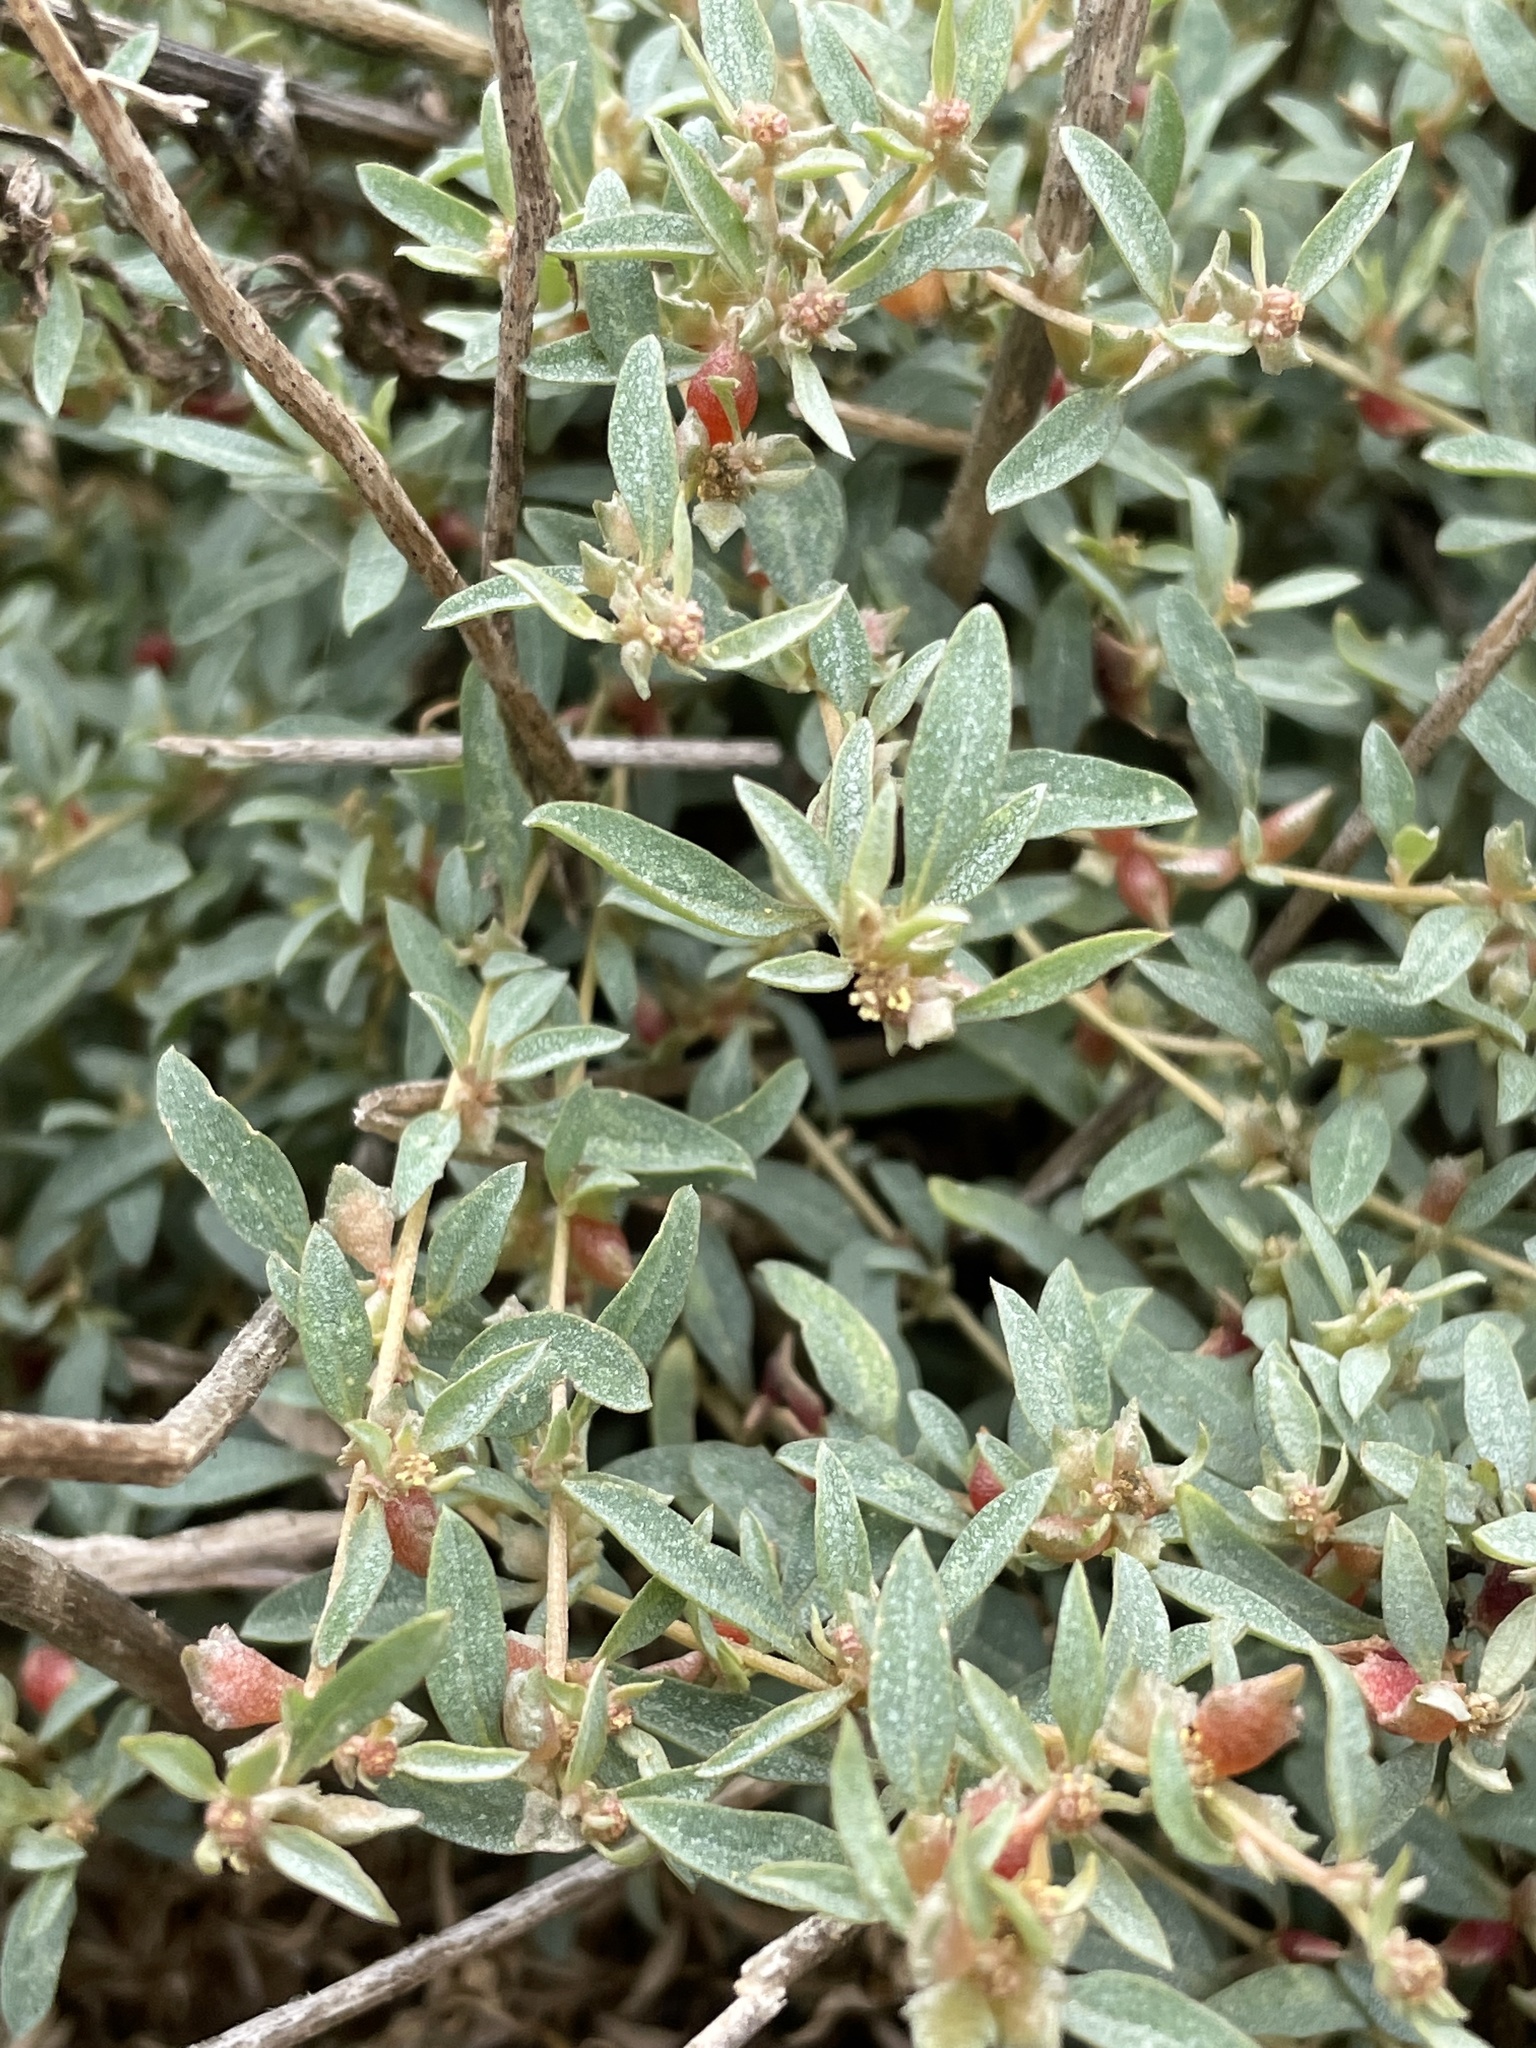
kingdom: Plantae
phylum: Tracheophyta
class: Magnoliopsida
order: Caryophyllales
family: Amaranthaceae
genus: Atriplex
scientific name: Atriplex semibaccata
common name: Australian saltbush
